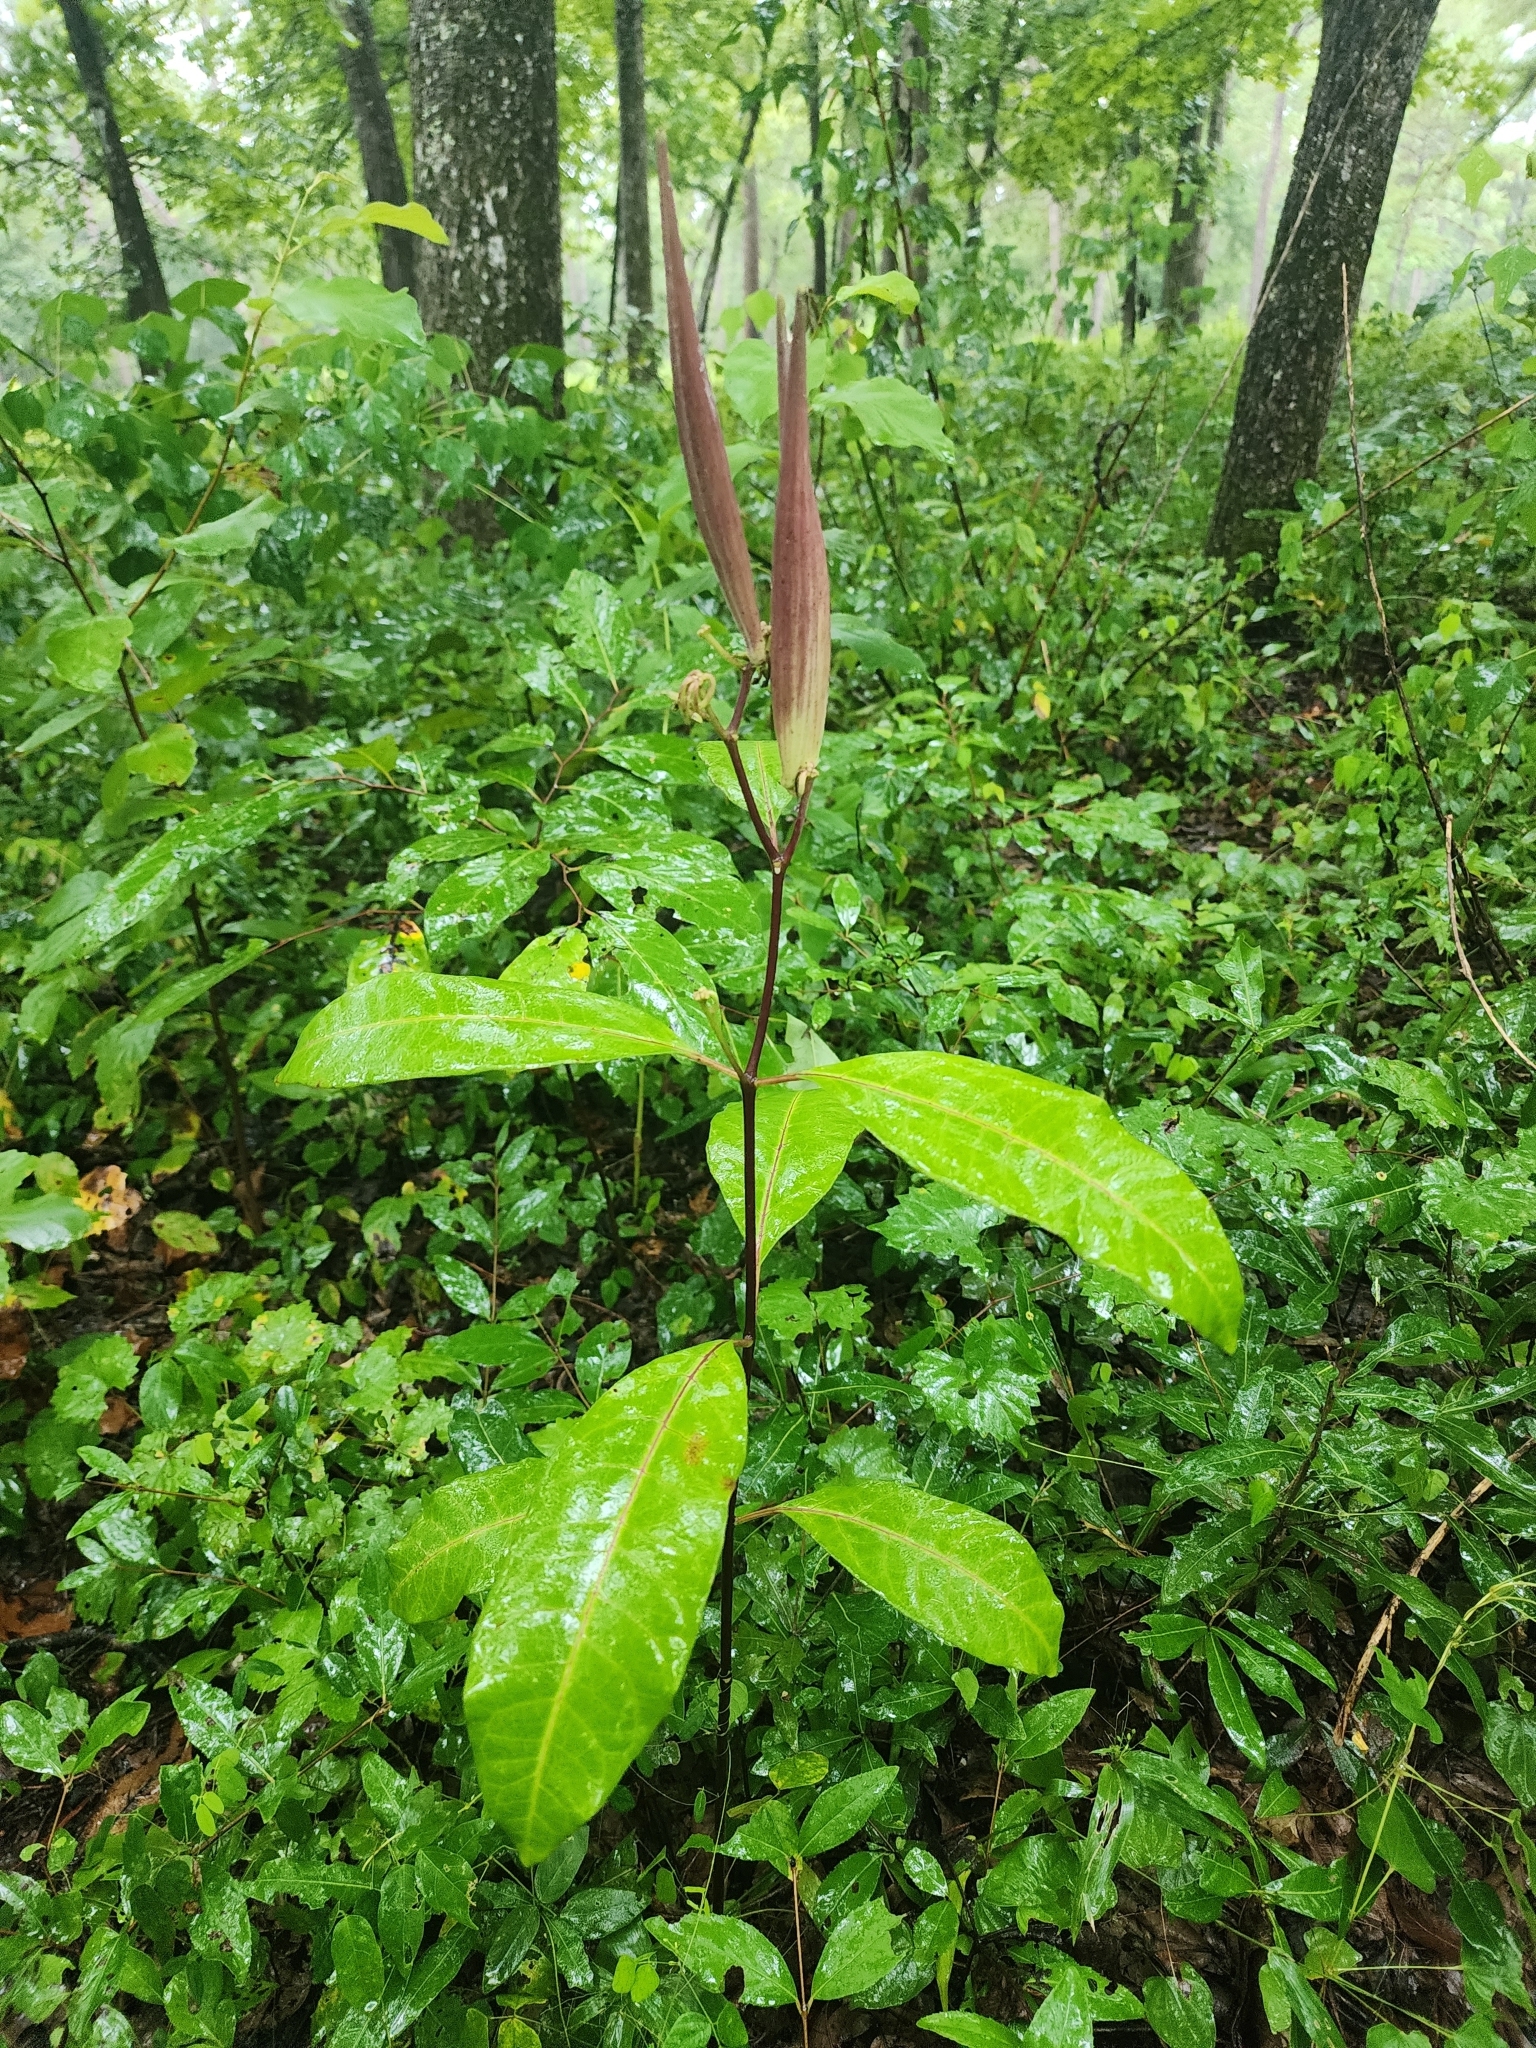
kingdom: Plantae
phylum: Tracheophyta
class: Magnoliopsida
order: Gentianales
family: Apocynaceae
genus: Asclepias
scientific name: Asclepias variegata
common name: Variegated milkweed
